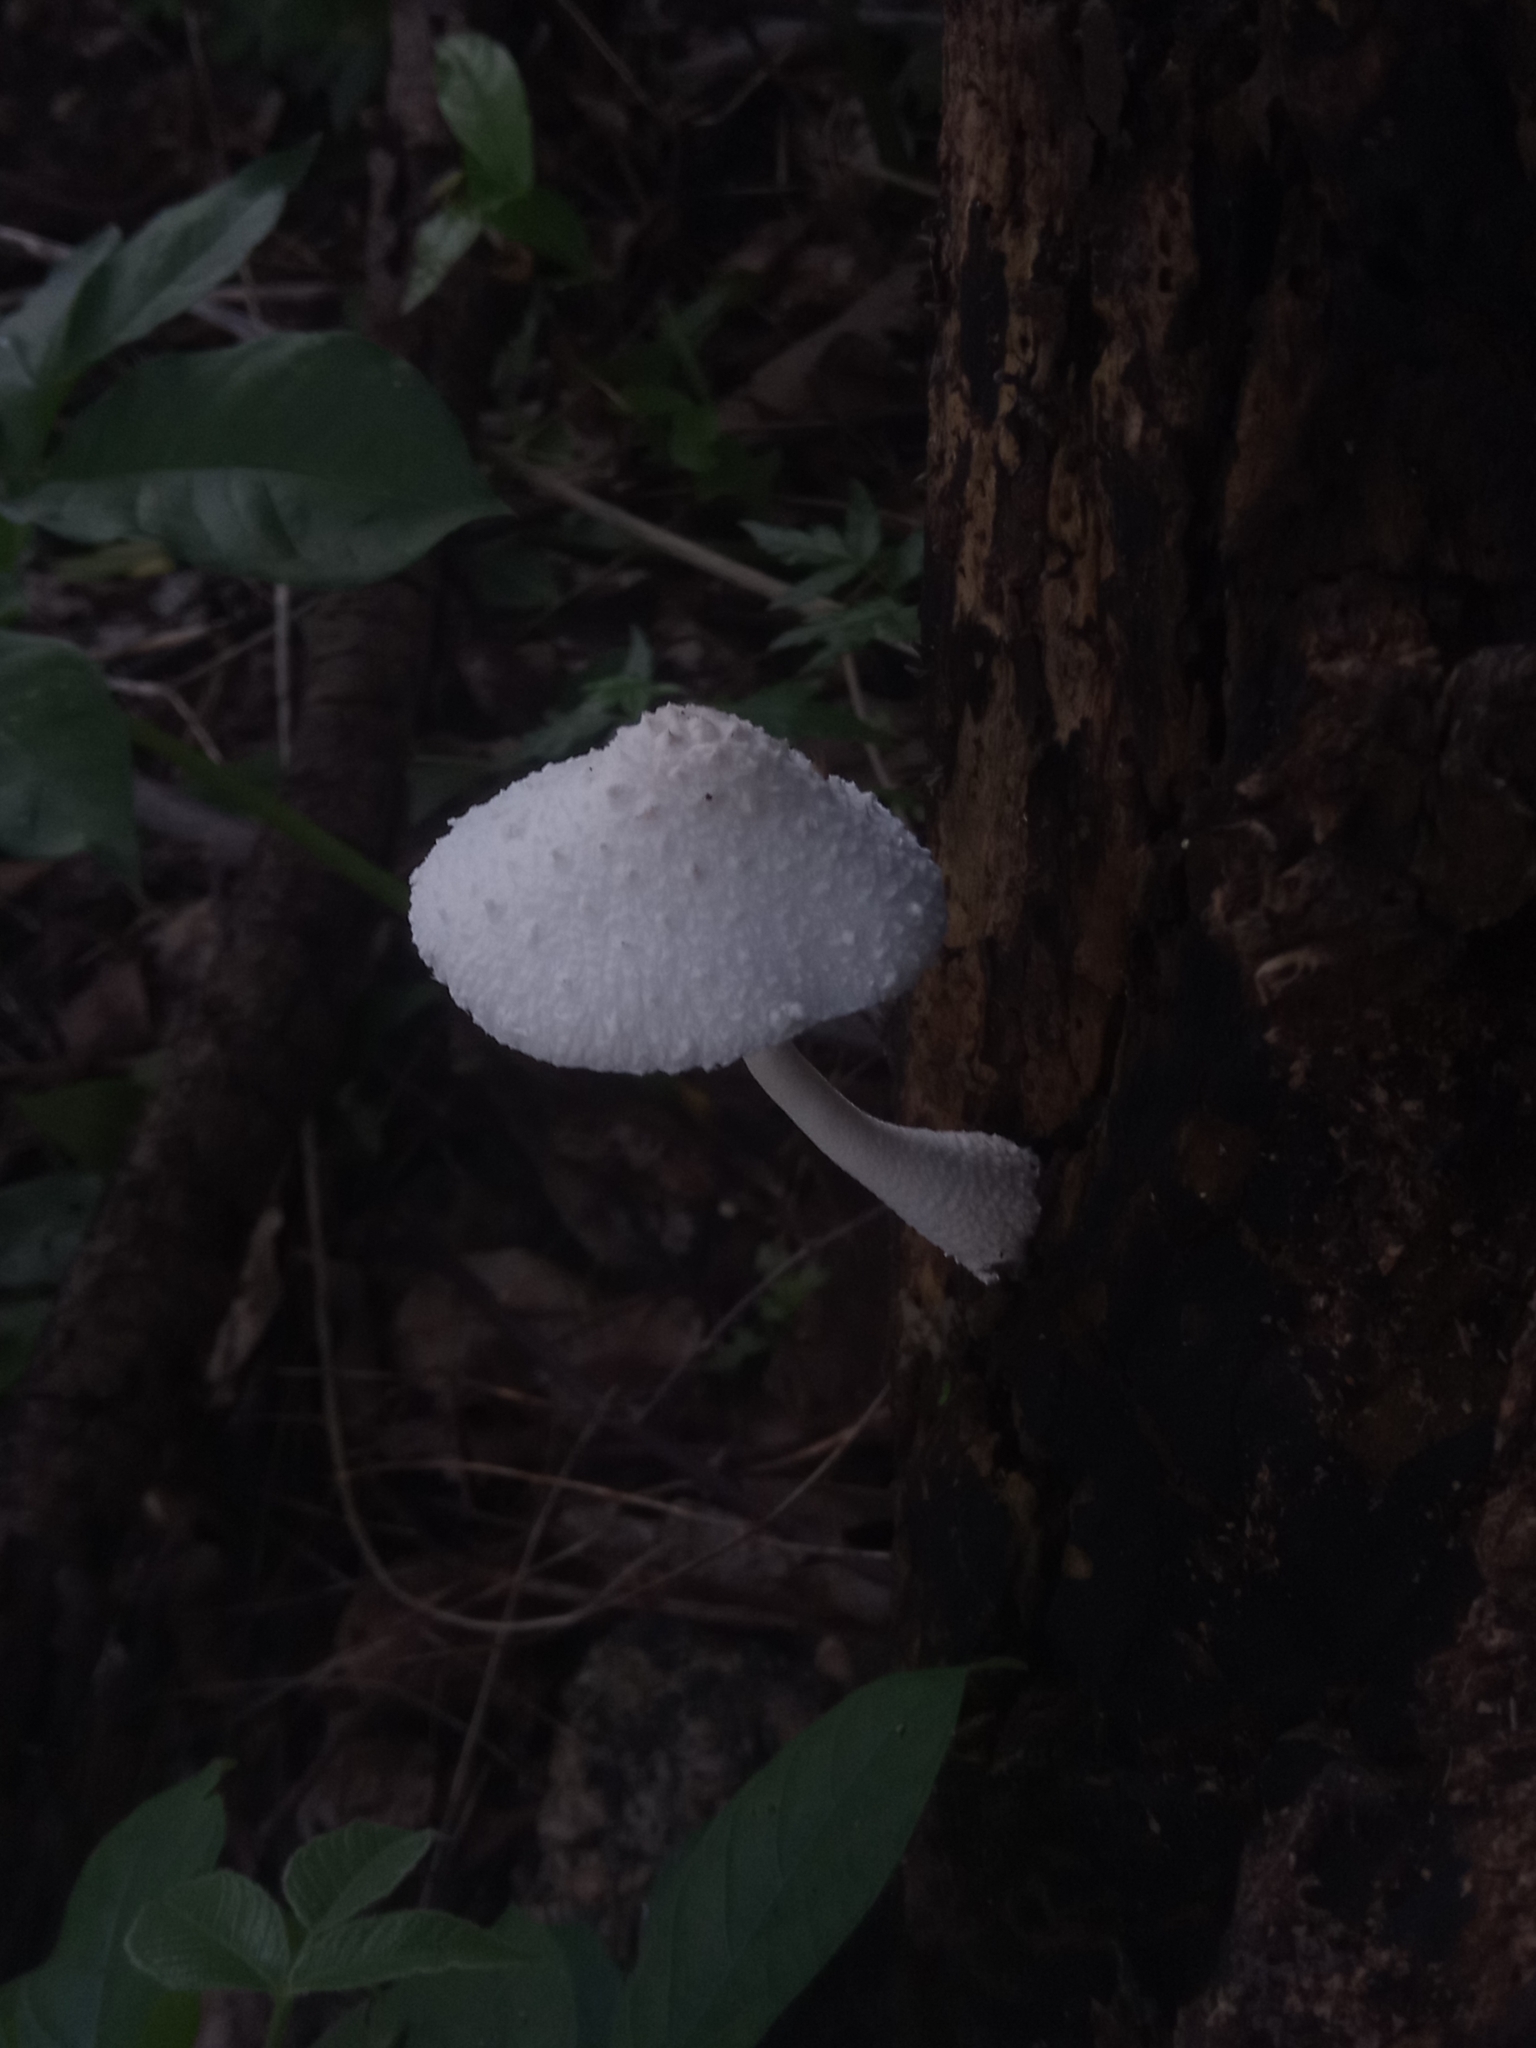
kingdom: Fungi
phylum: Basidiomycota
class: Agaricomycetes
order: Agaricales
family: Agaricaceae
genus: Leucocoprinus
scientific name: Leucocoprinus cretaceus
